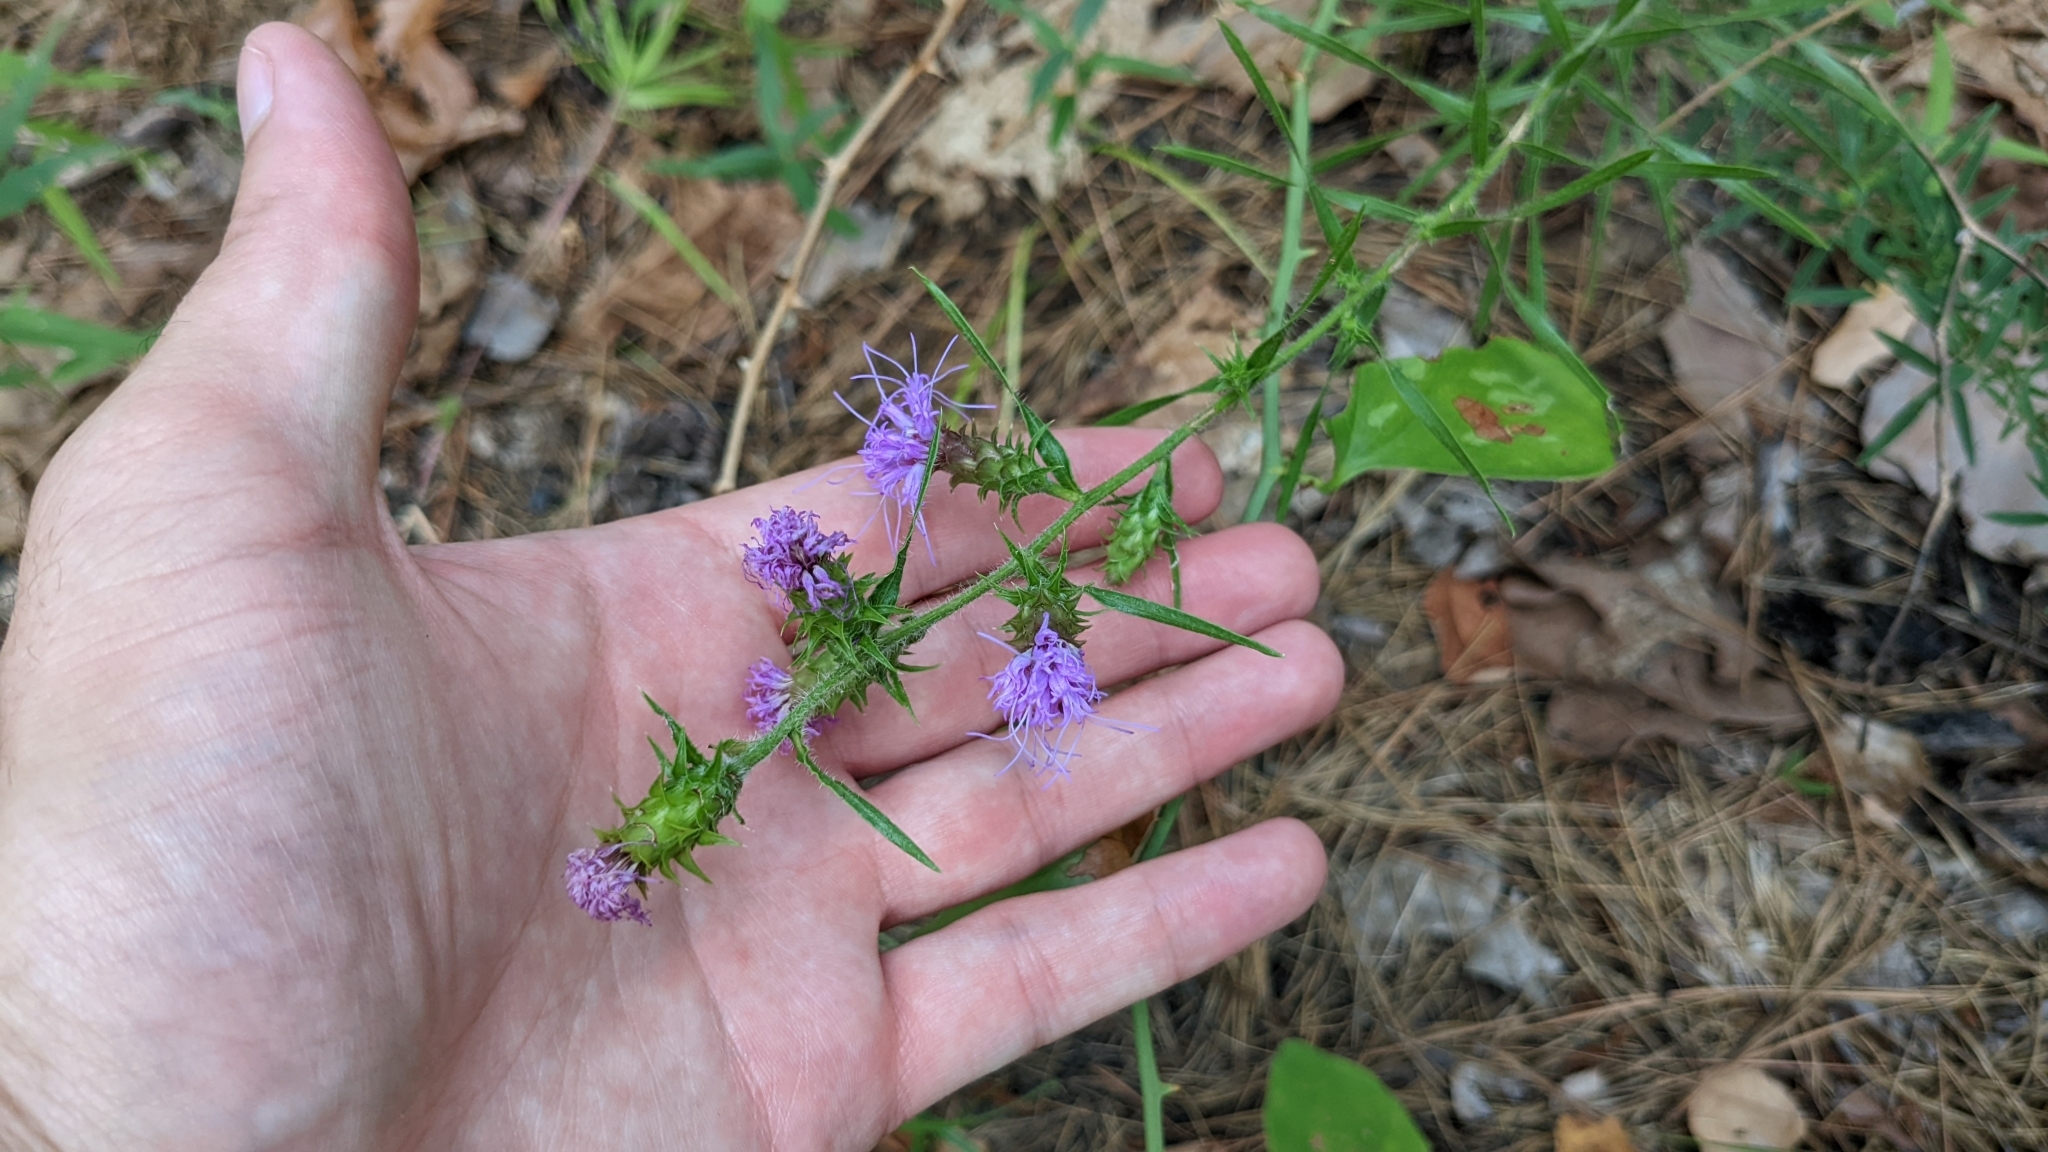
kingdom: Plantae
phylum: Tracheophyta
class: Magnoliopsida
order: Asterales
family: Asteraceae
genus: Liatris
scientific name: Liatris squarrosa
